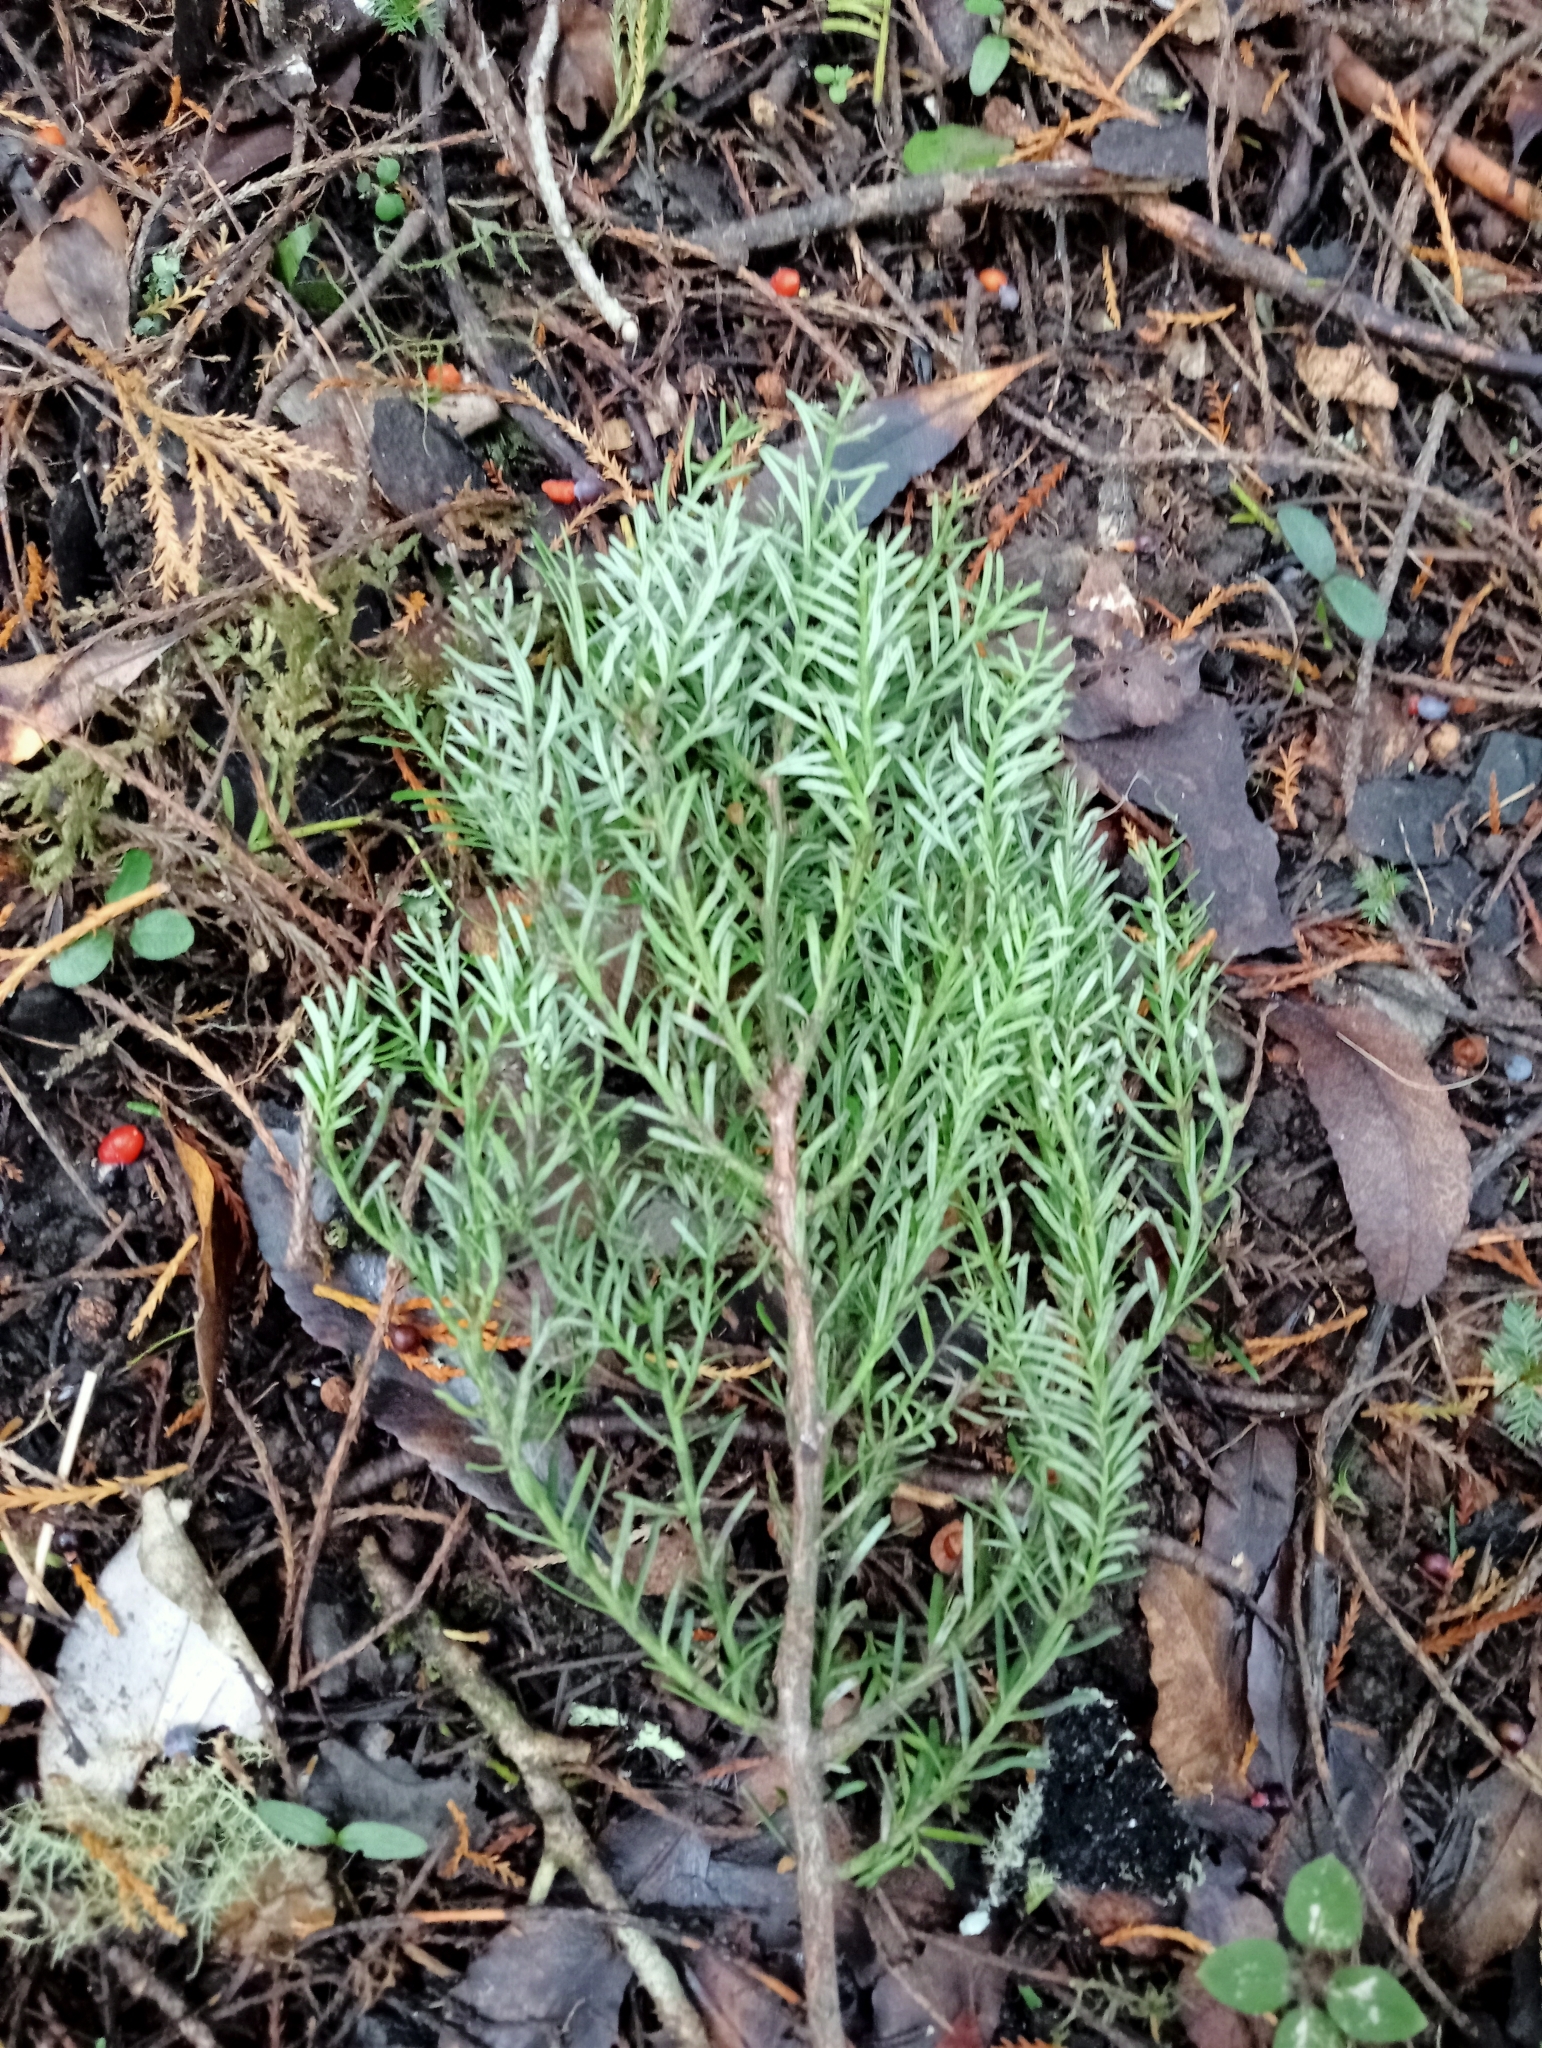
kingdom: Plantae
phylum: Tracheophyta
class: Pinopsida
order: Pinales
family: Podocarpaceae
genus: Prumnopitys
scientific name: Prumnopitys taxifolia
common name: Matai
